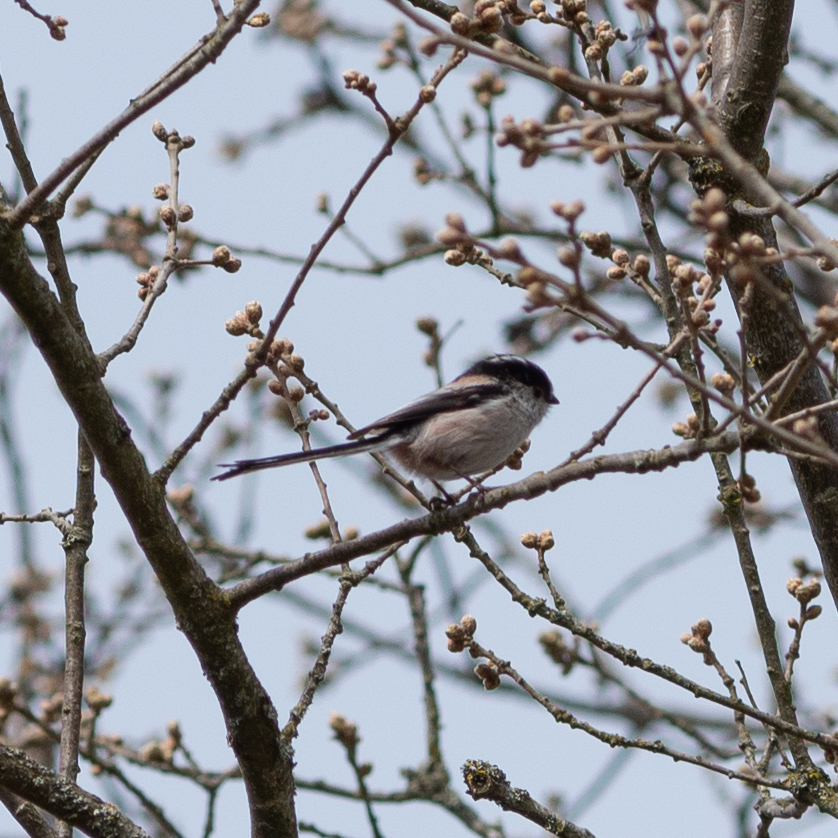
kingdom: Animalia
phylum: Chordata
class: Aves
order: Passeriformes
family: Aegithalidae
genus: Aegithalos
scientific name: Aegithalos caudatus
